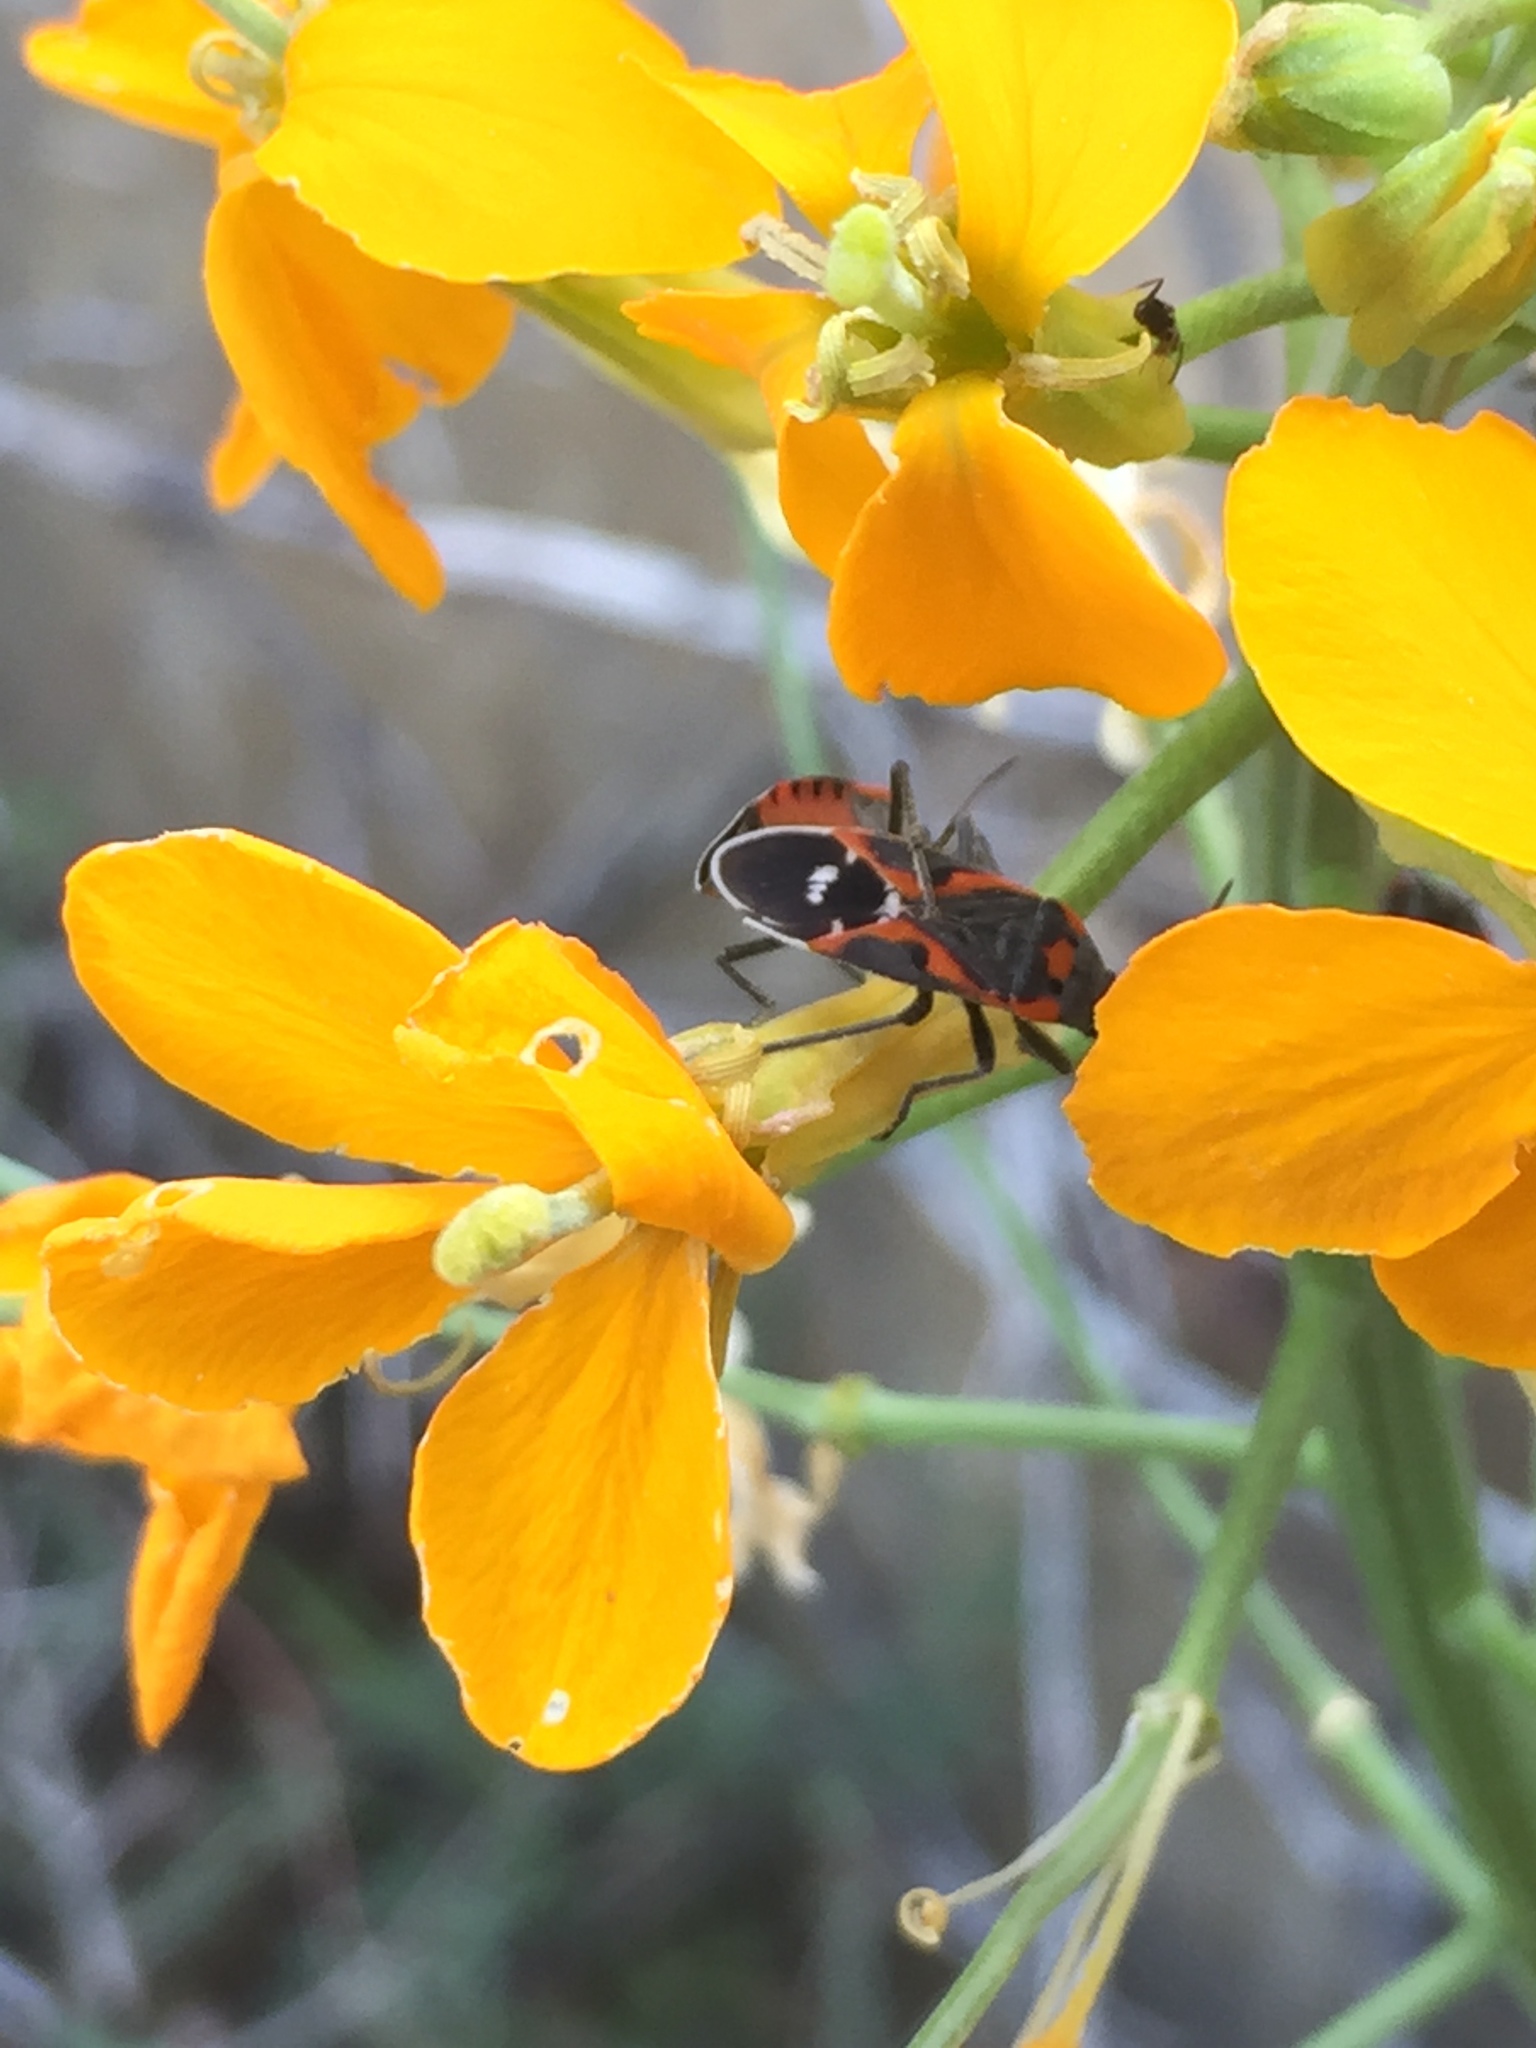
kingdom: Animalia
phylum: Arthropoda
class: Insecta
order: Hemiptera
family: Lygaeidae
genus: Lygaeus
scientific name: Lygaeus kalmii
